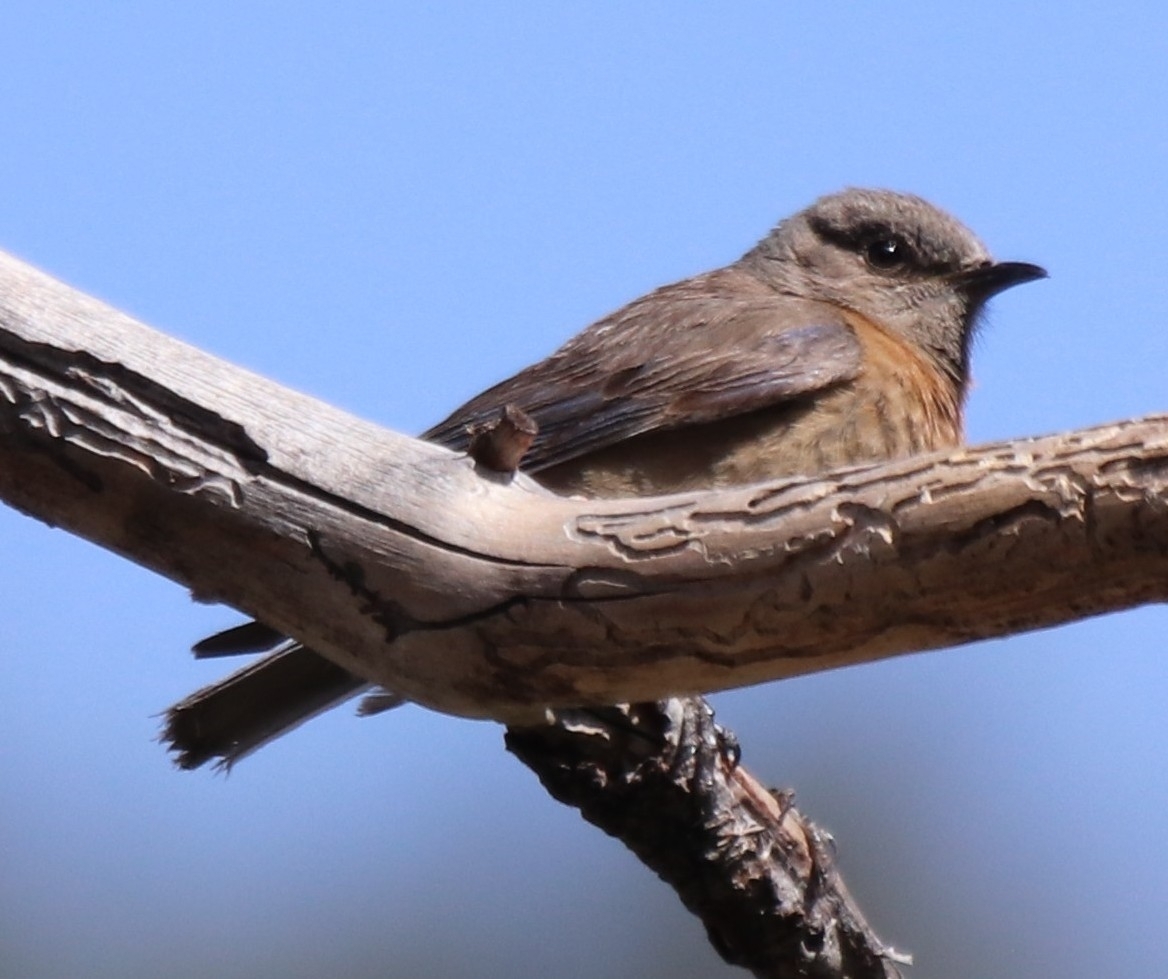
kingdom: Animalia
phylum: Chordata
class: Aves
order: Passeriformes
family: Turdidae
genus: Sialia
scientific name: Sialia mexicana
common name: Western bluebird
